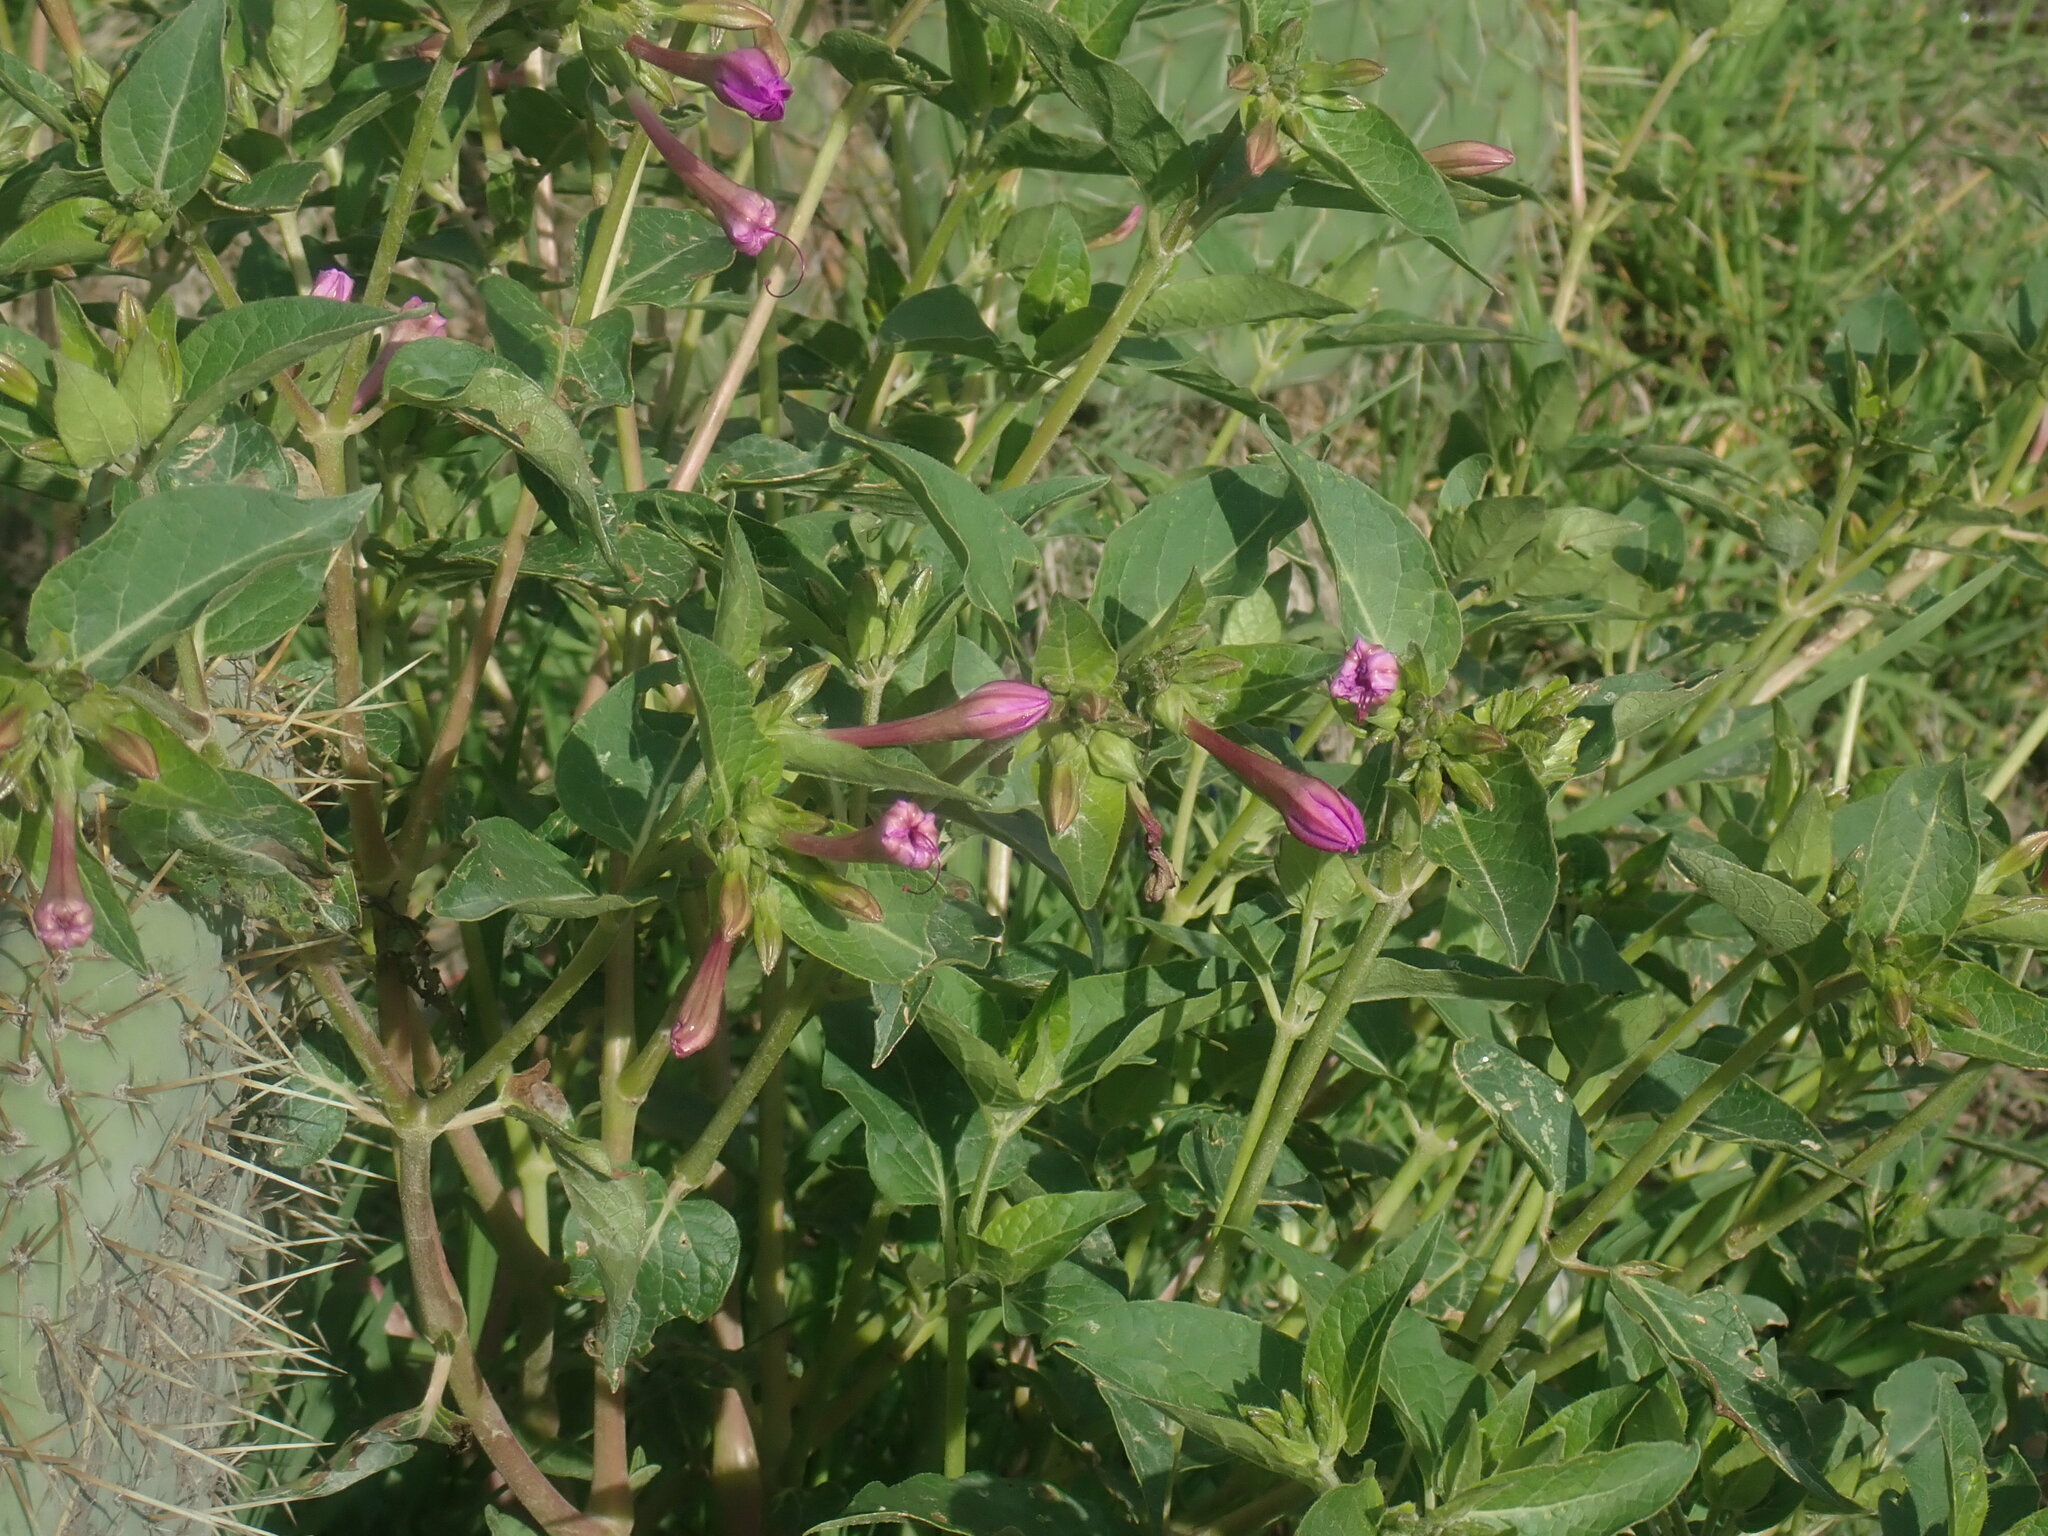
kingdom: Plantae
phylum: Tracheophyta
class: Magnoliopsida
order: Caryophyllales
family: Nyctaginaceae
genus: Mirabilis
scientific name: Mirabilis jalapa
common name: Marvel-of-peru
